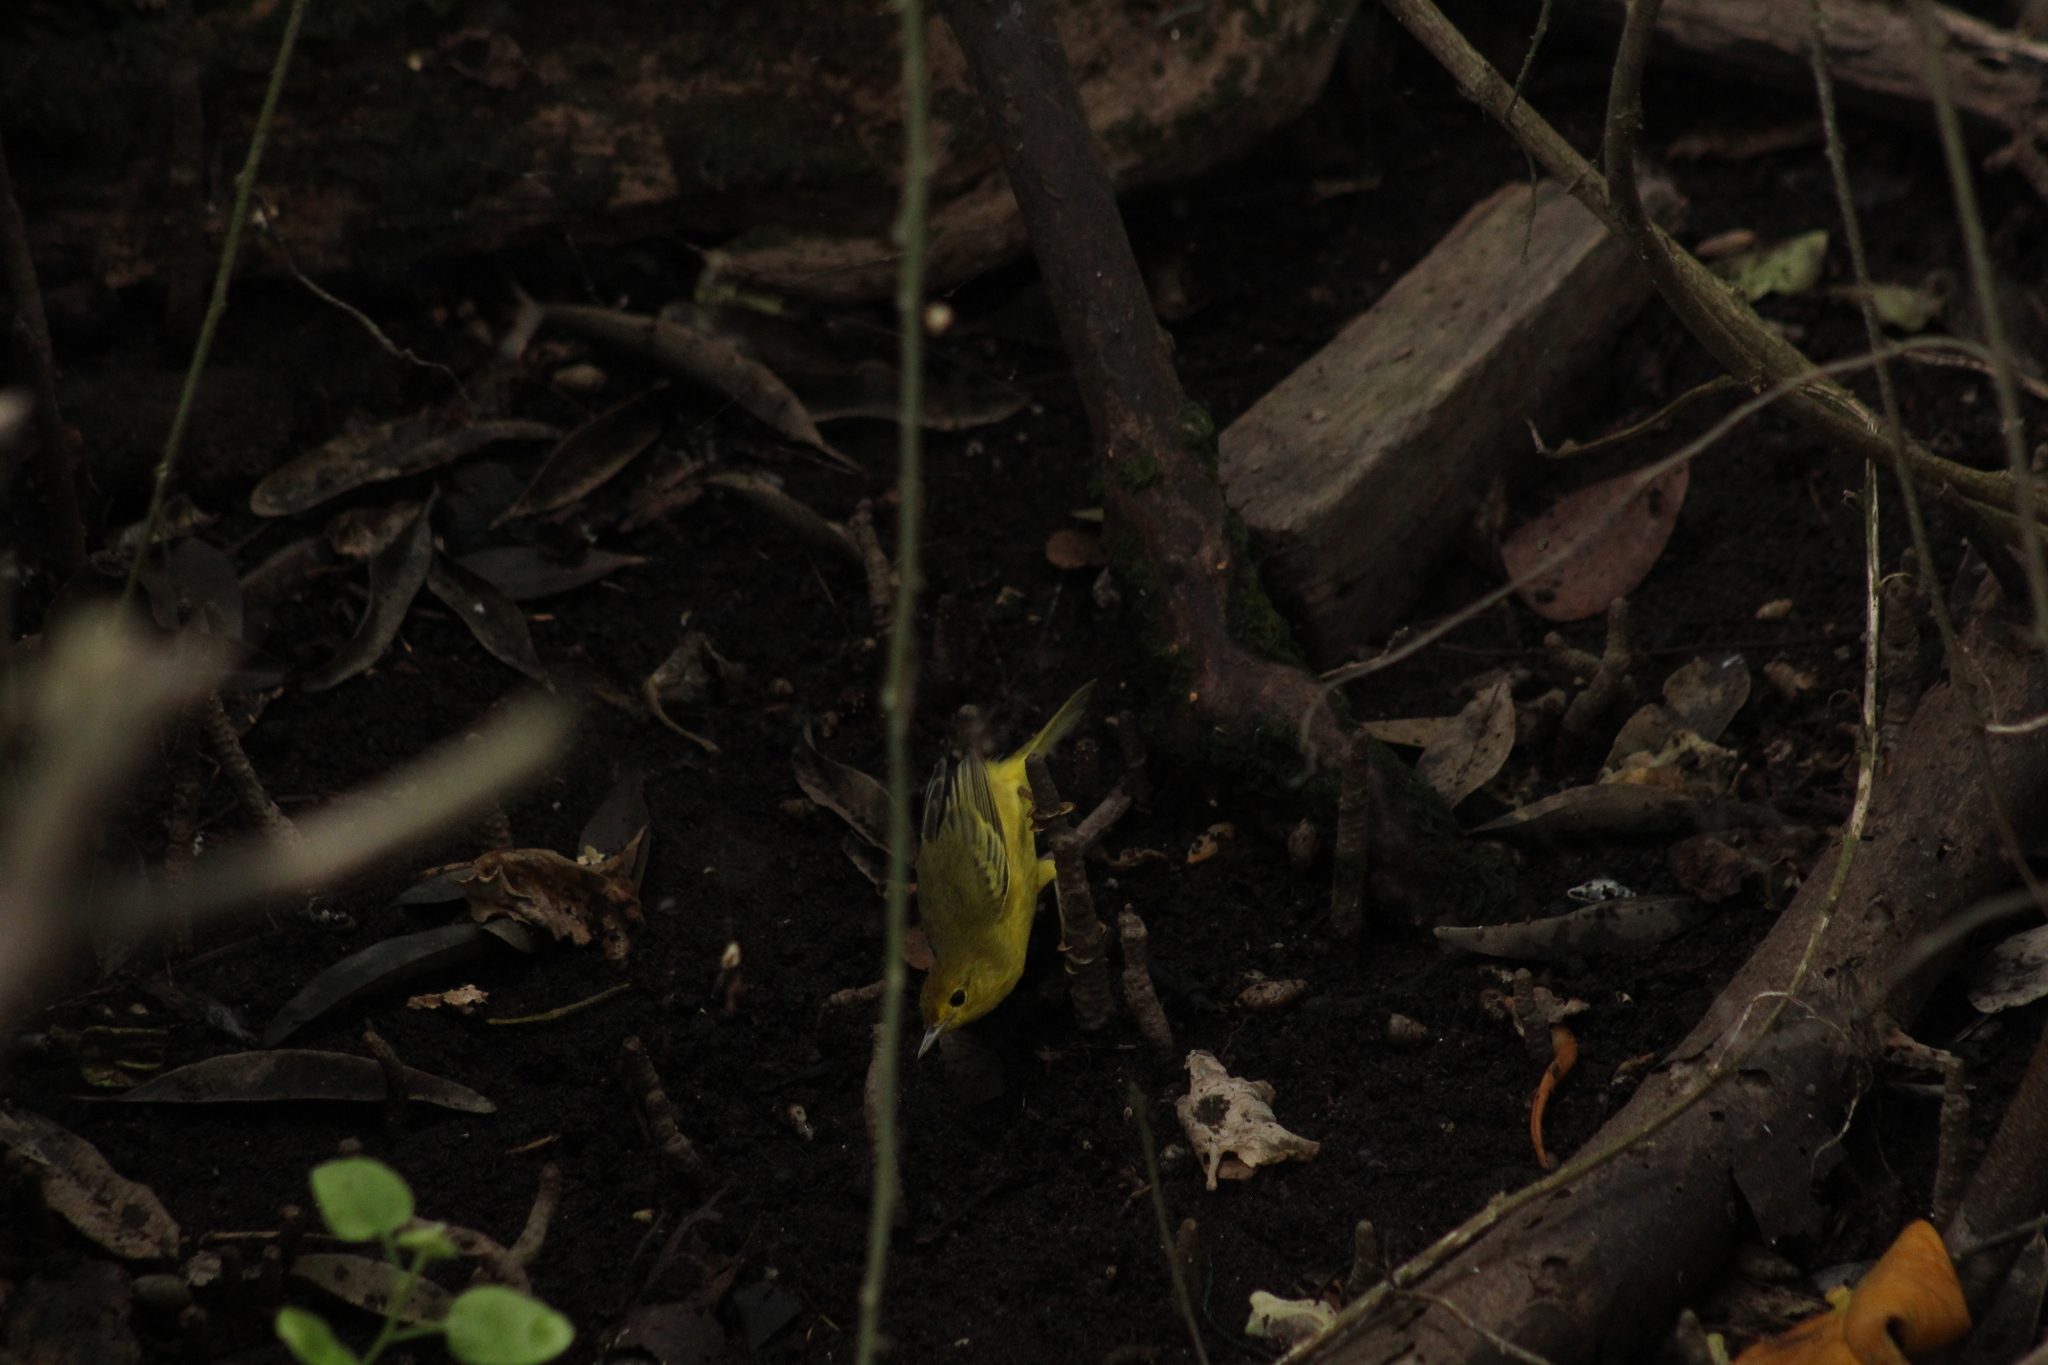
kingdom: Animalia
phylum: Chordata
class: Aves
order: Passeriformes
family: Parulidae
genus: Setophaga
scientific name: Setophaga petechia
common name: Yellow warbler
